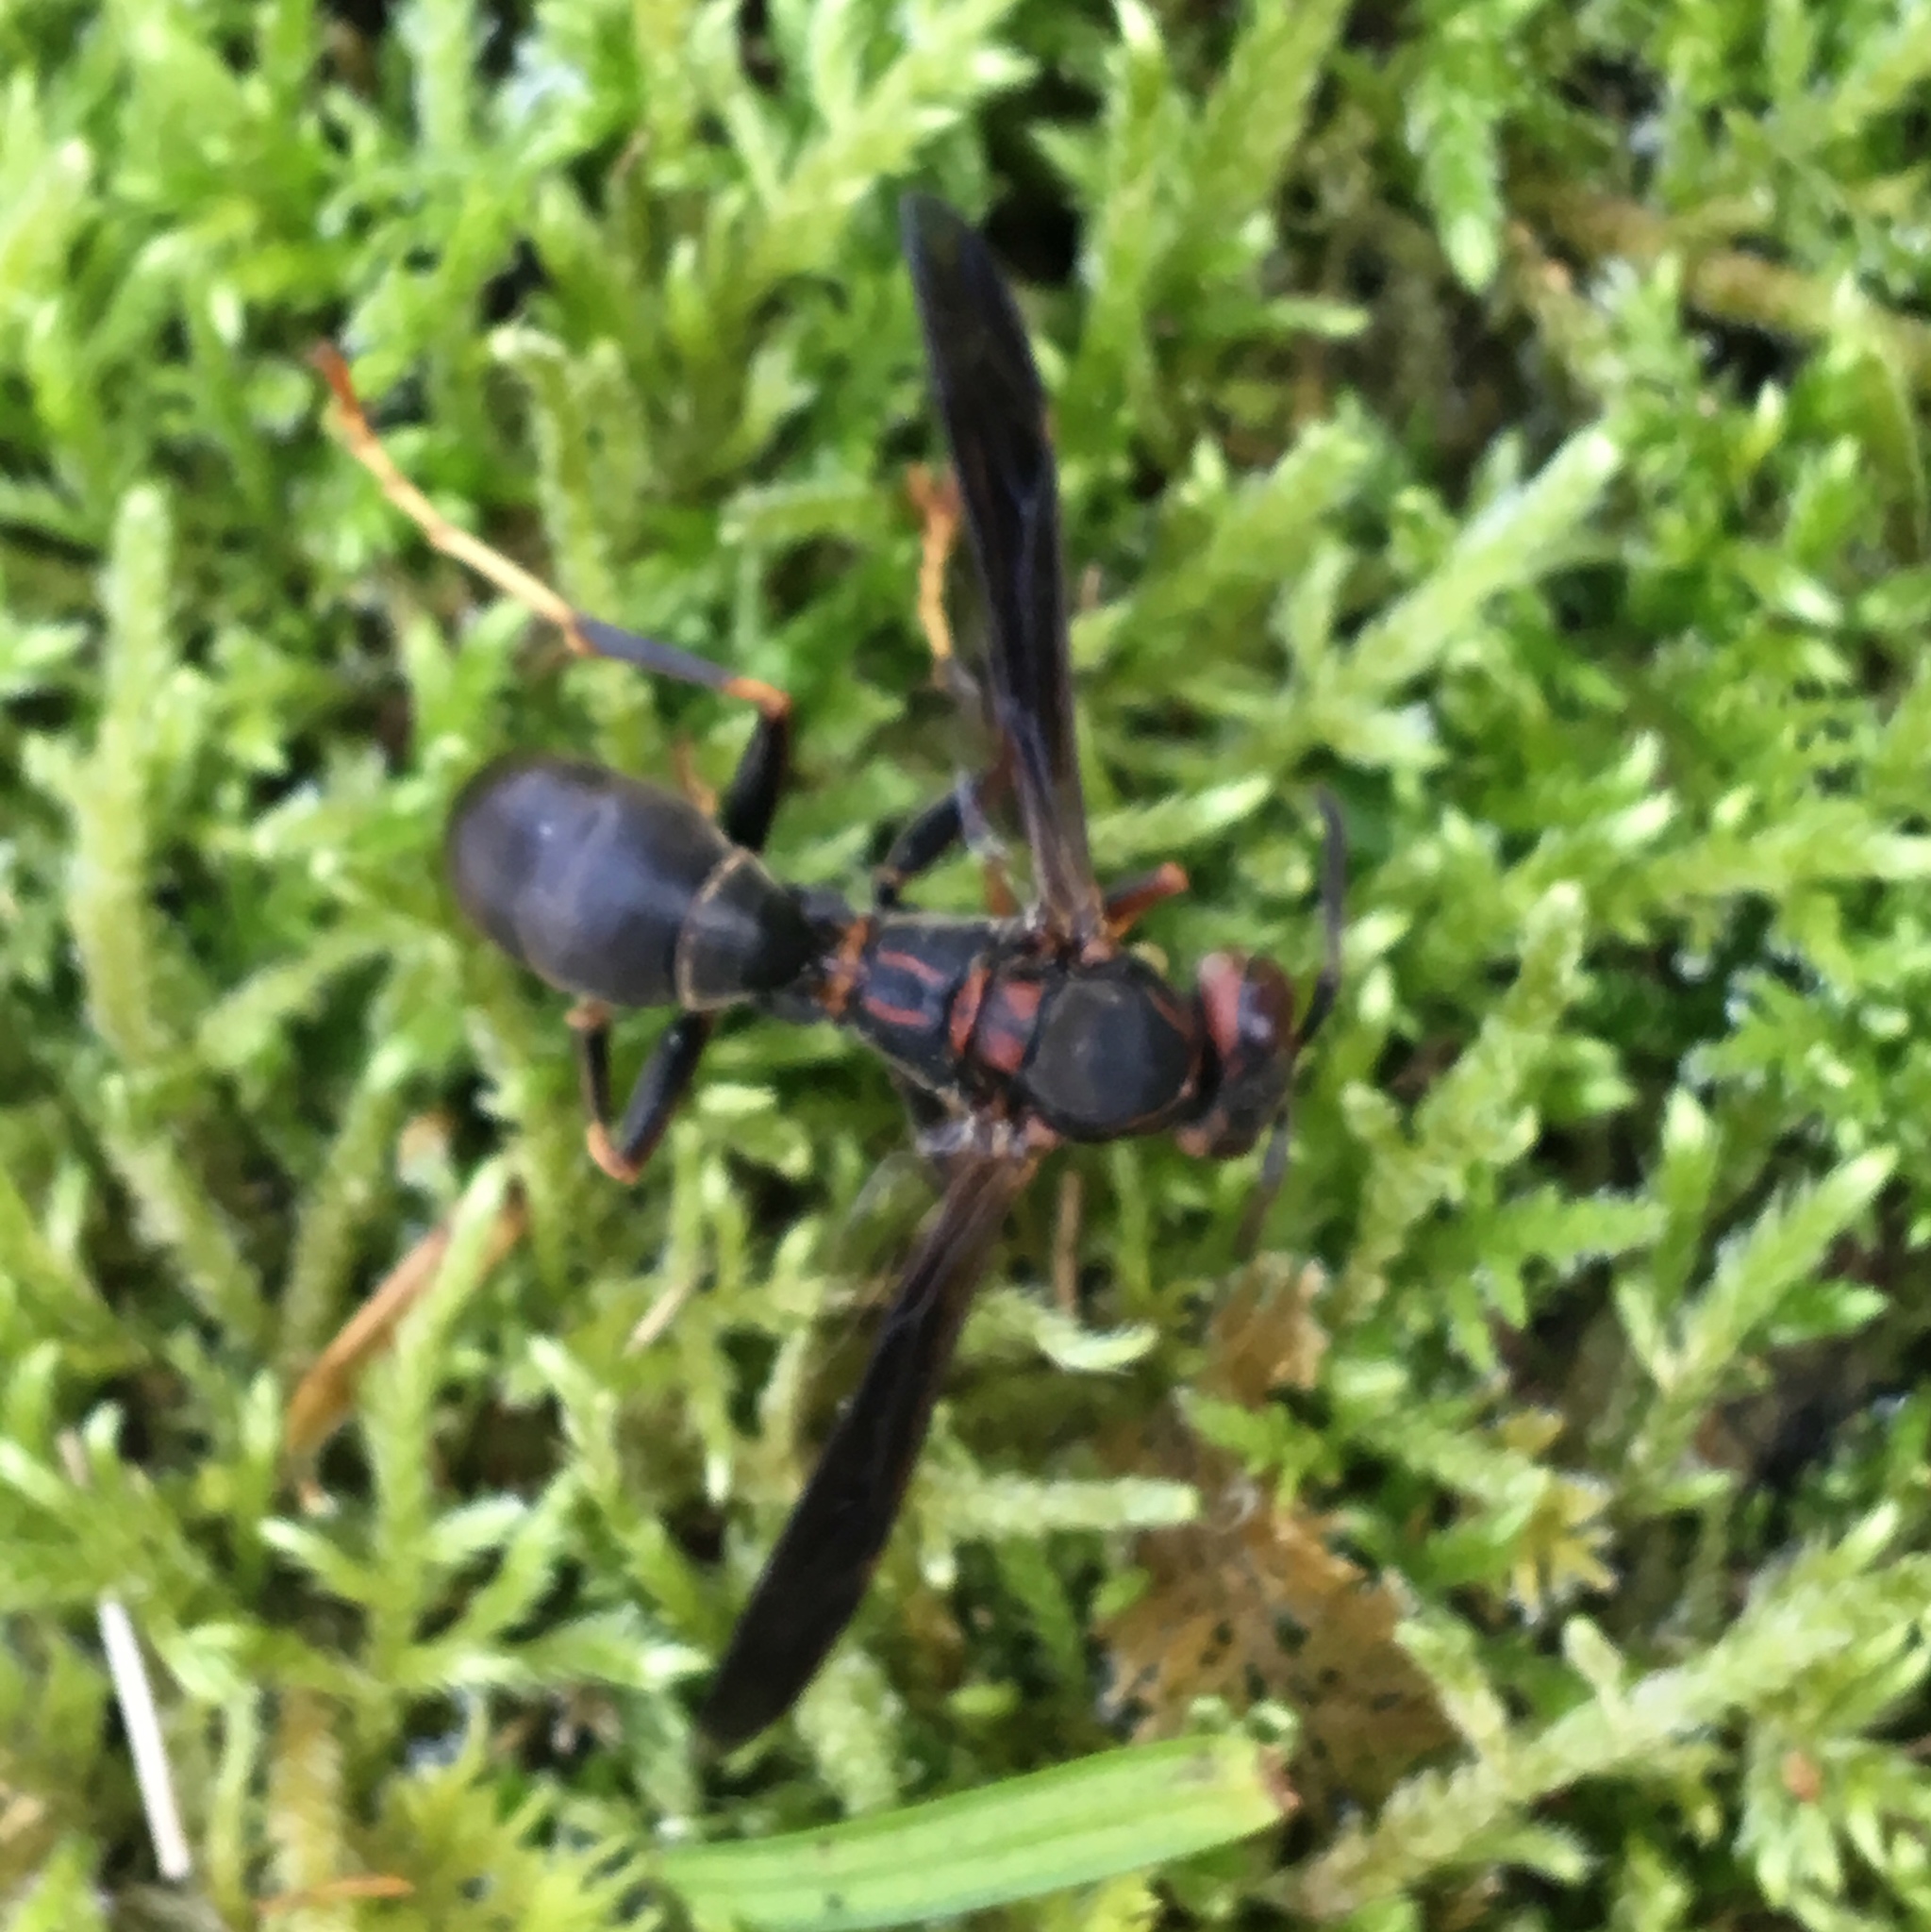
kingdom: Animalia
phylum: Arthropoda
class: Insecta
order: Hymenoptera
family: Eumenidae
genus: Polistes
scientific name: Polistes parametricus
